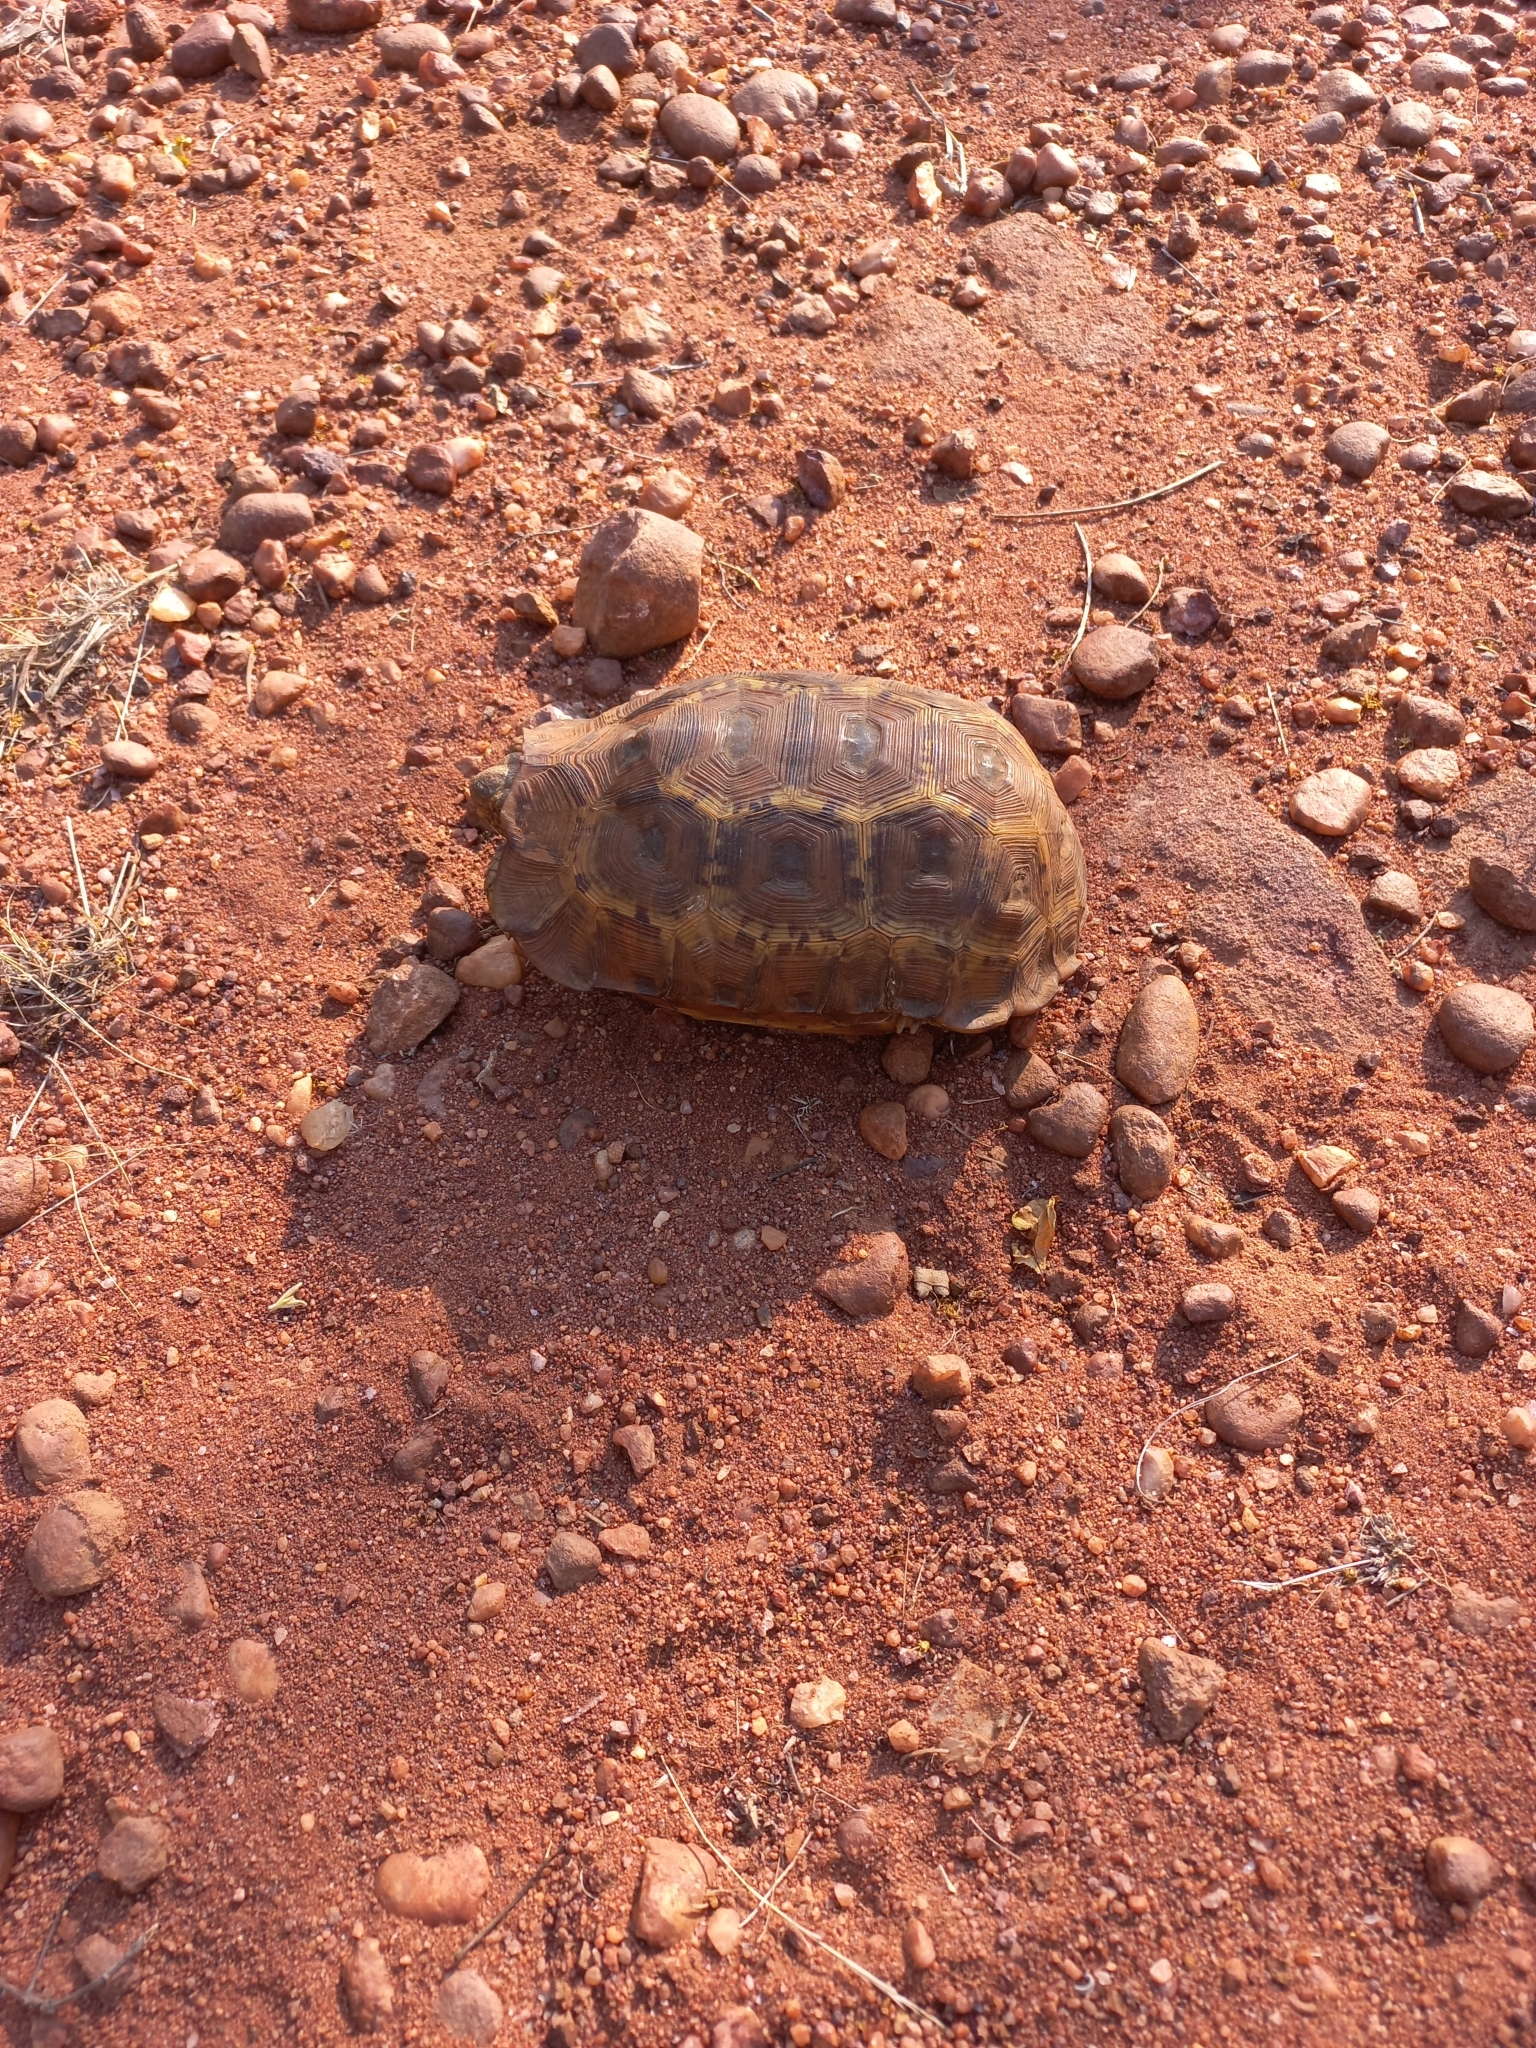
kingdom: Animalia
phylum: Chordata
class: Testudines
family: Testudinidae
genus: Kinixys
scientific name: Kinixys lobatsiana
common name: Lobatse hinge-back tortoise
